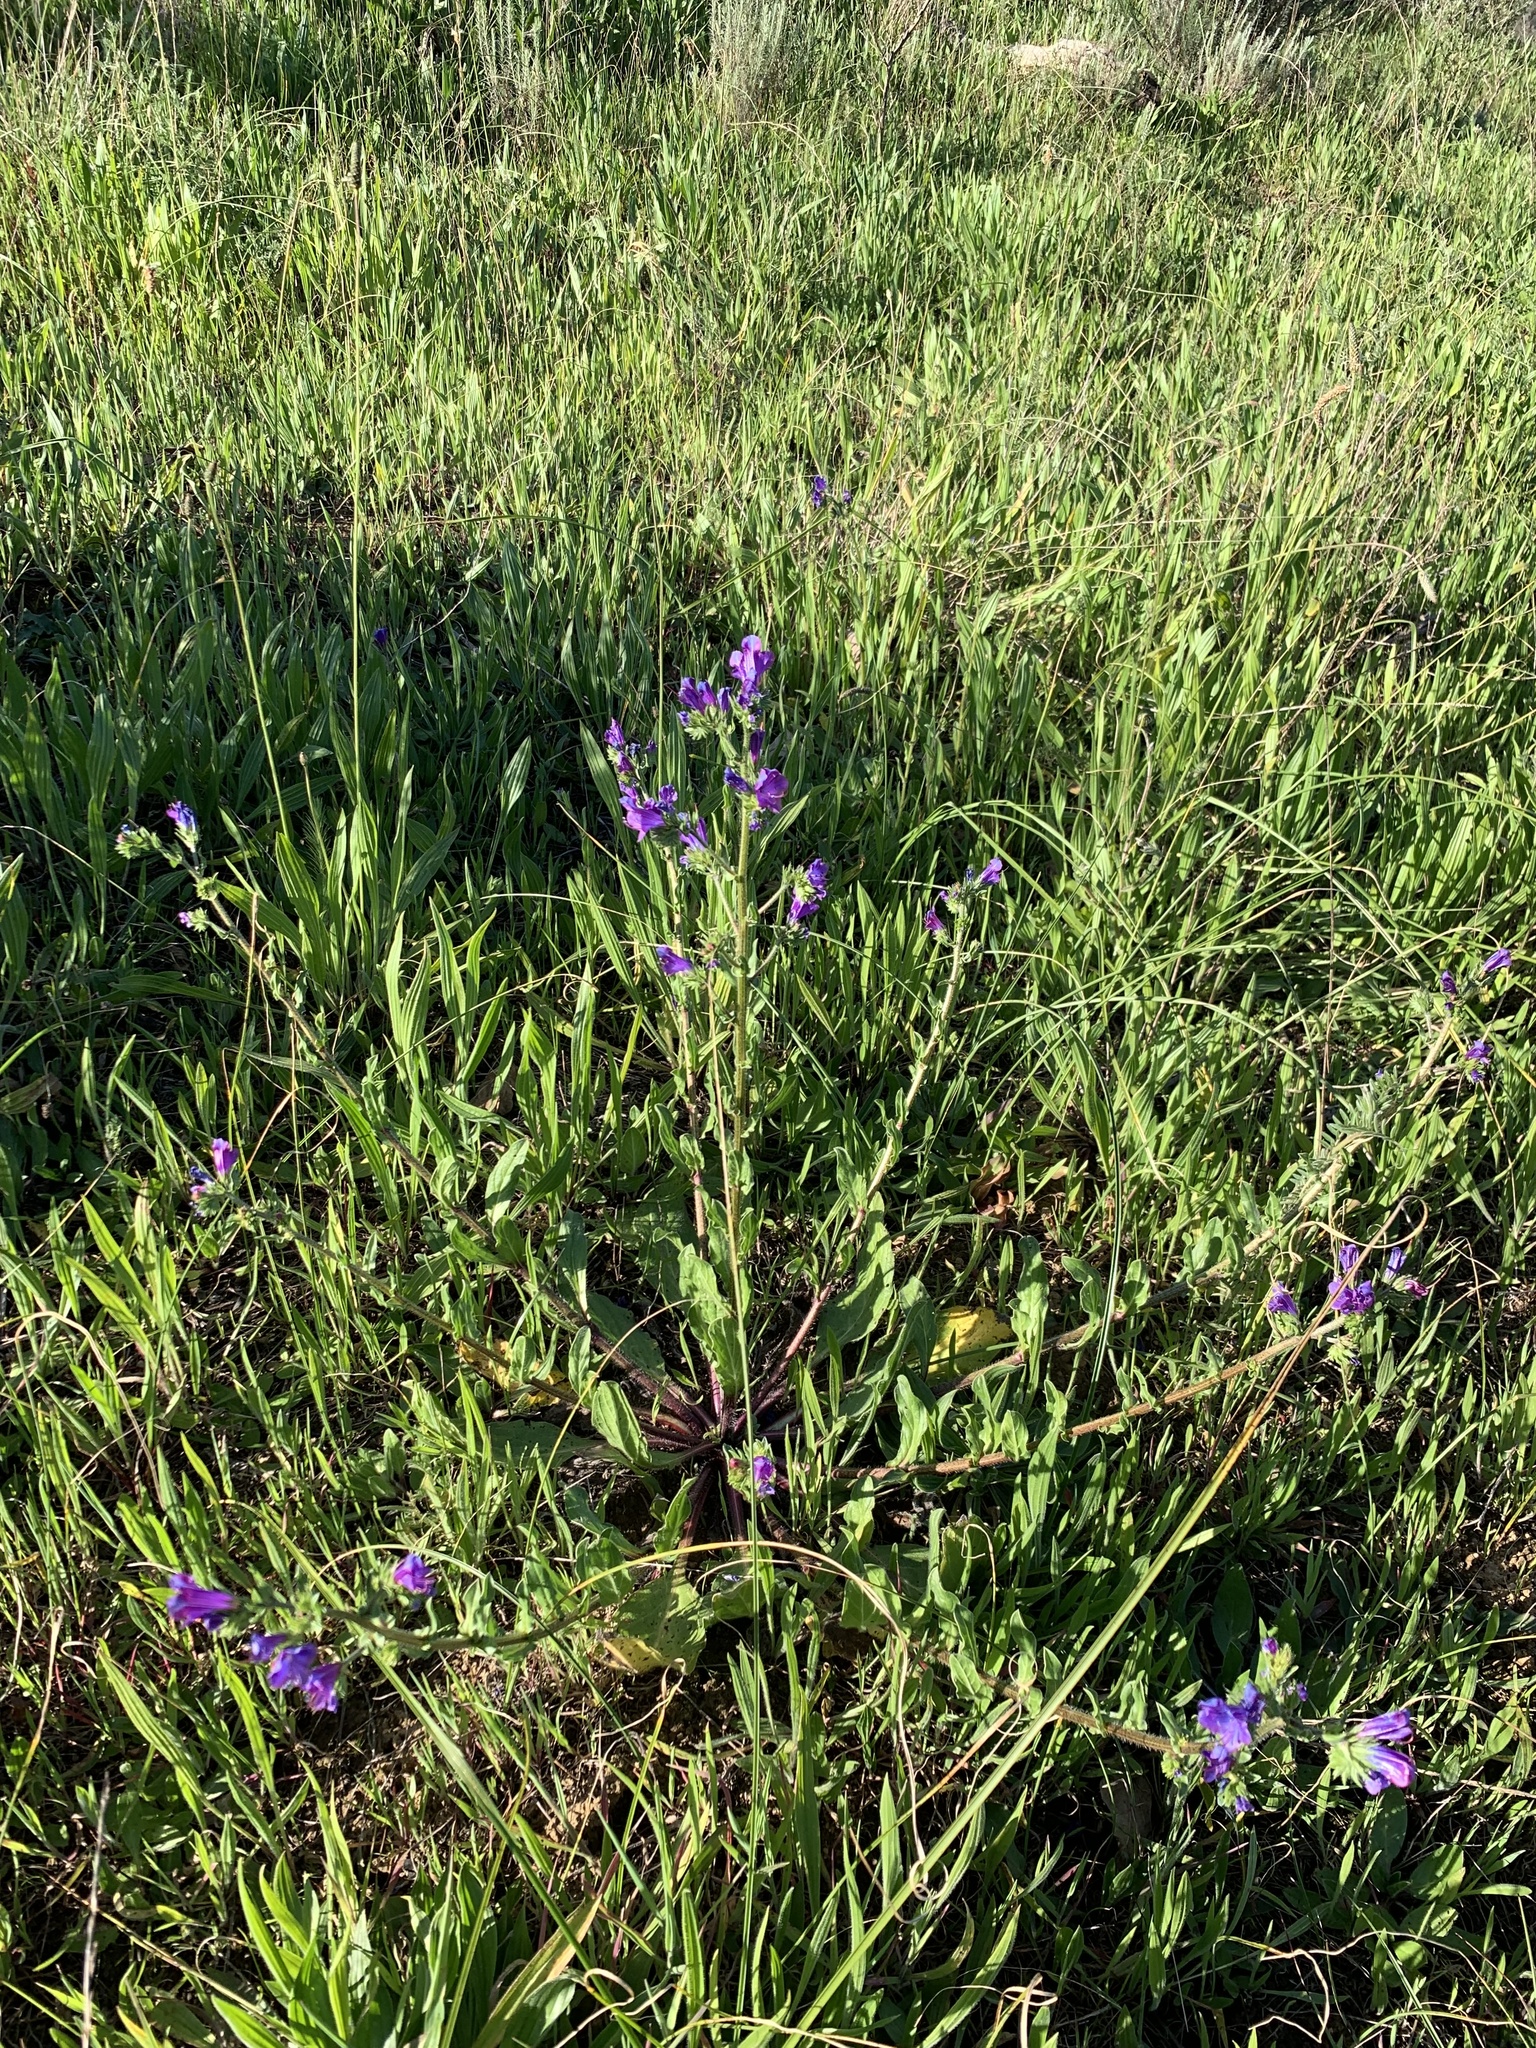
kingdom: Plantae
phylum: Tracheophyta
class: Magnoliopsida
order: Boraginales
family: Boraginaceae
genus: Echium
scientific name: Echium plantagineum
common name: Purple viper's-bugloss
